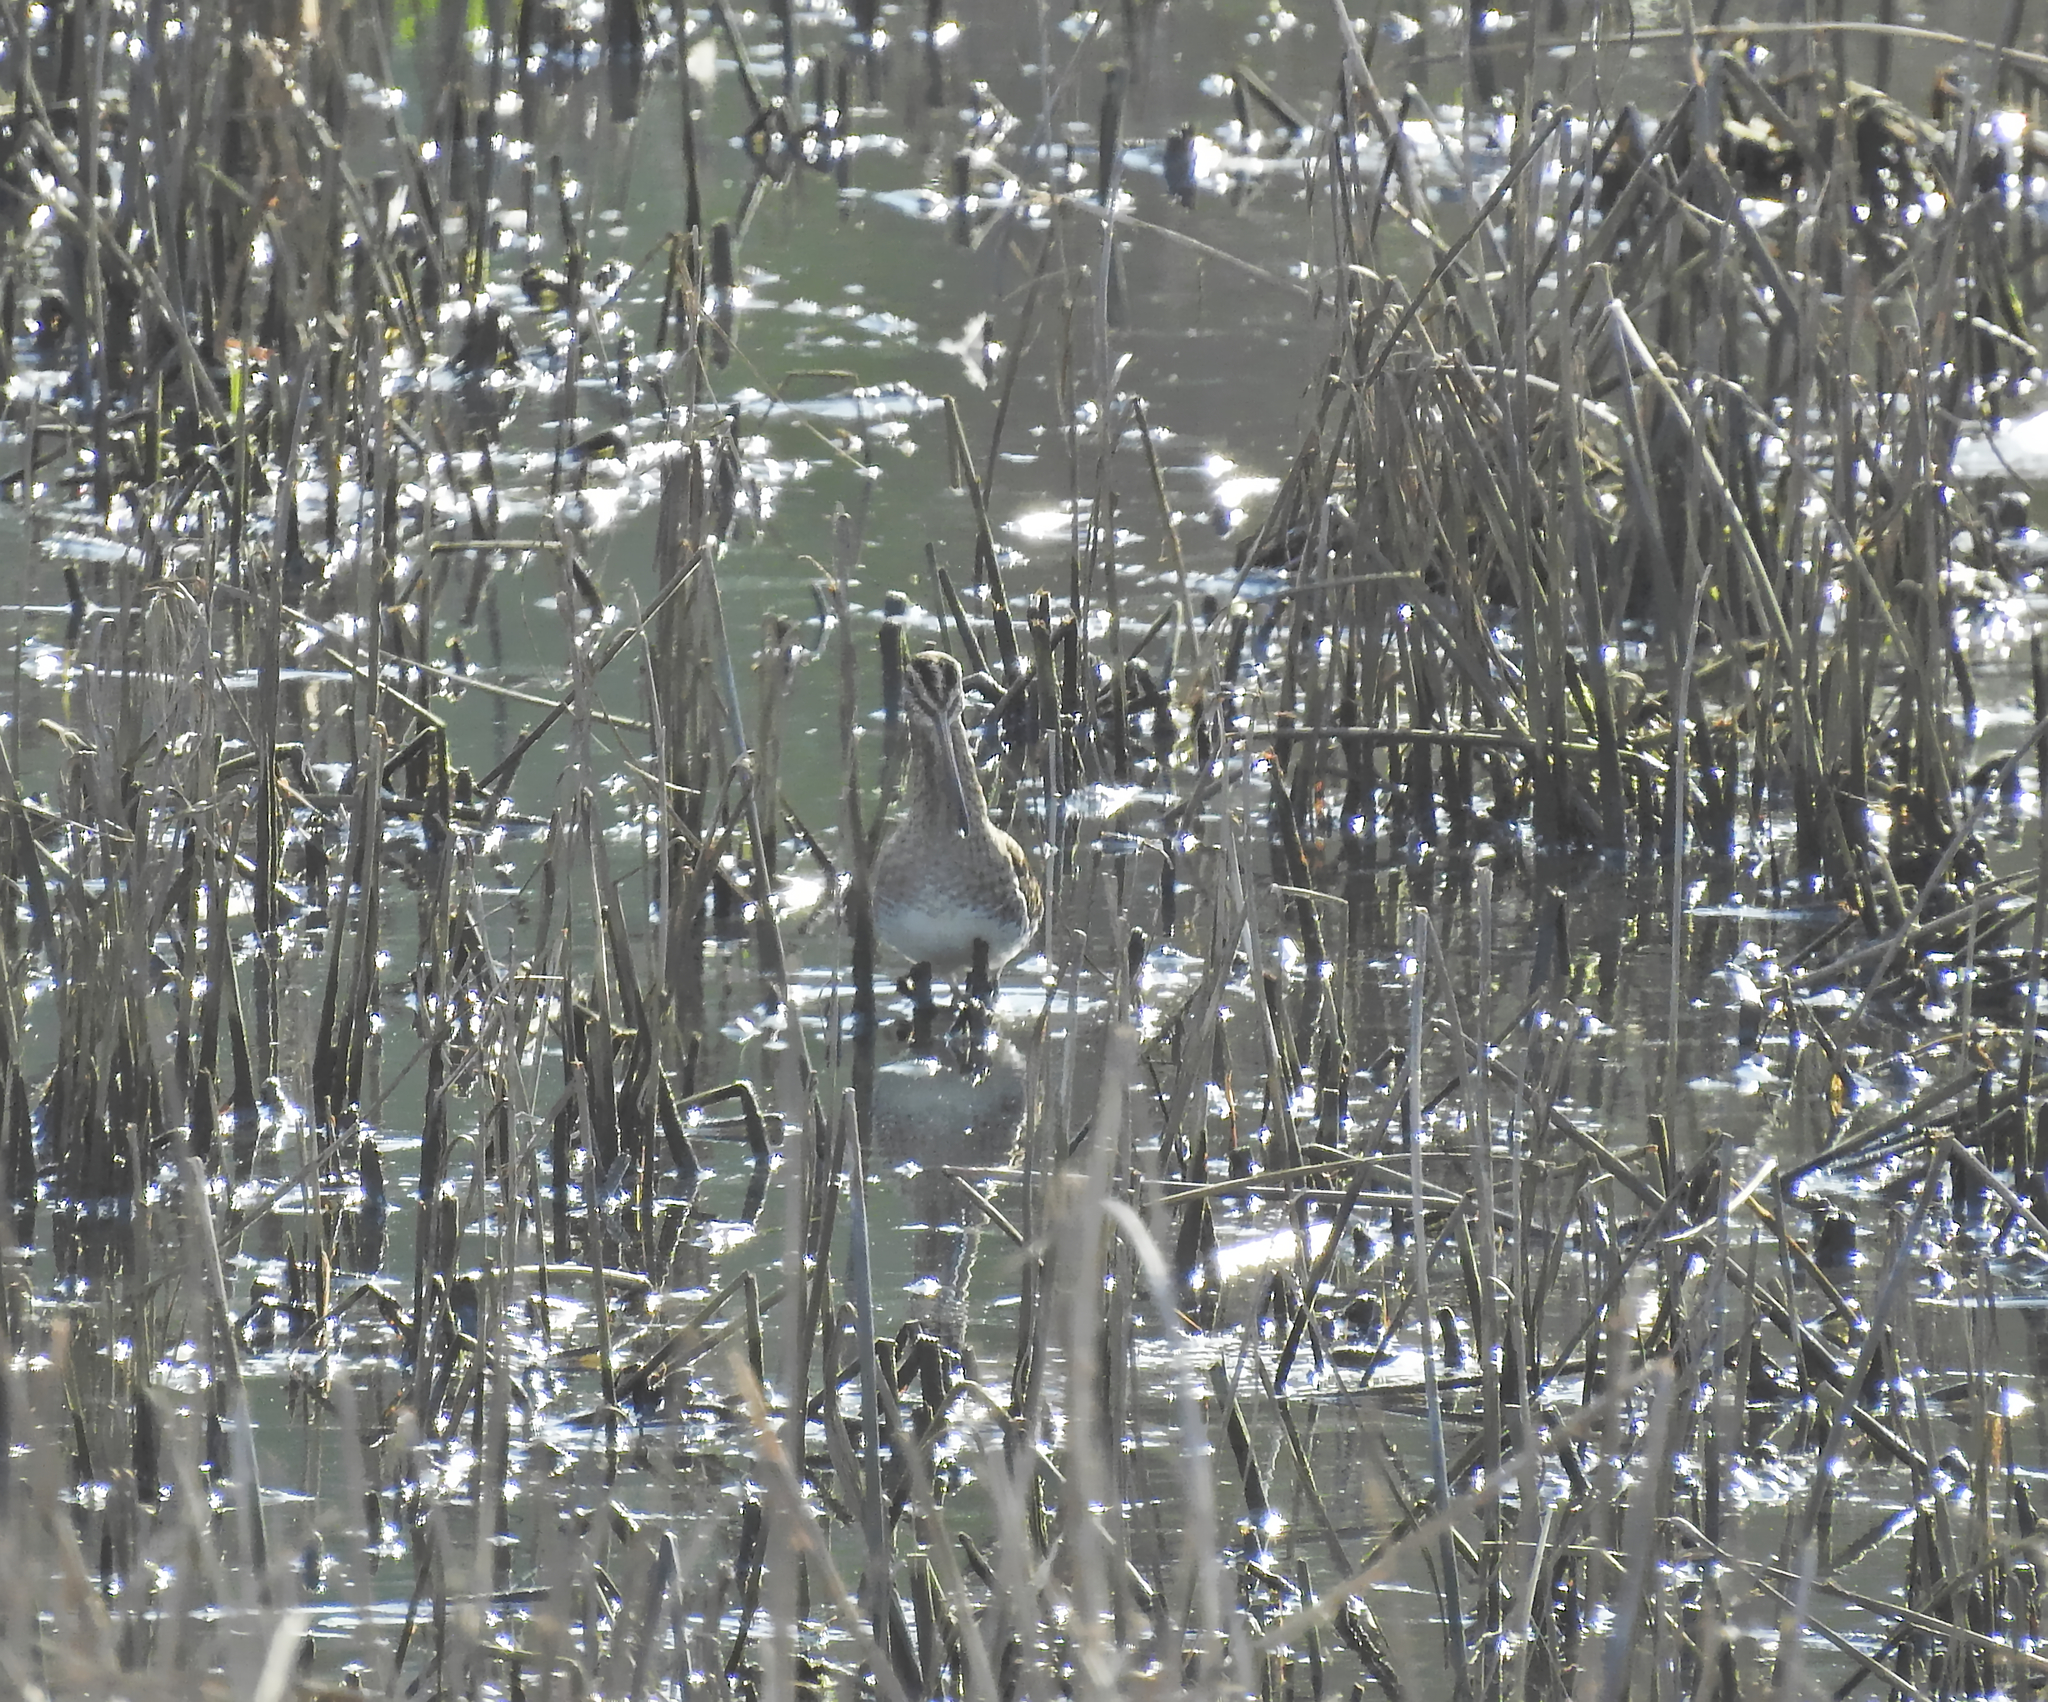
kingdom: Animalia
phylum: Chordata
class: Aves
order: Charadriiformes
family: Scolopacidae
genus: Gallinago
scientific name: Gallinago gallinago
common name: Common snipe
